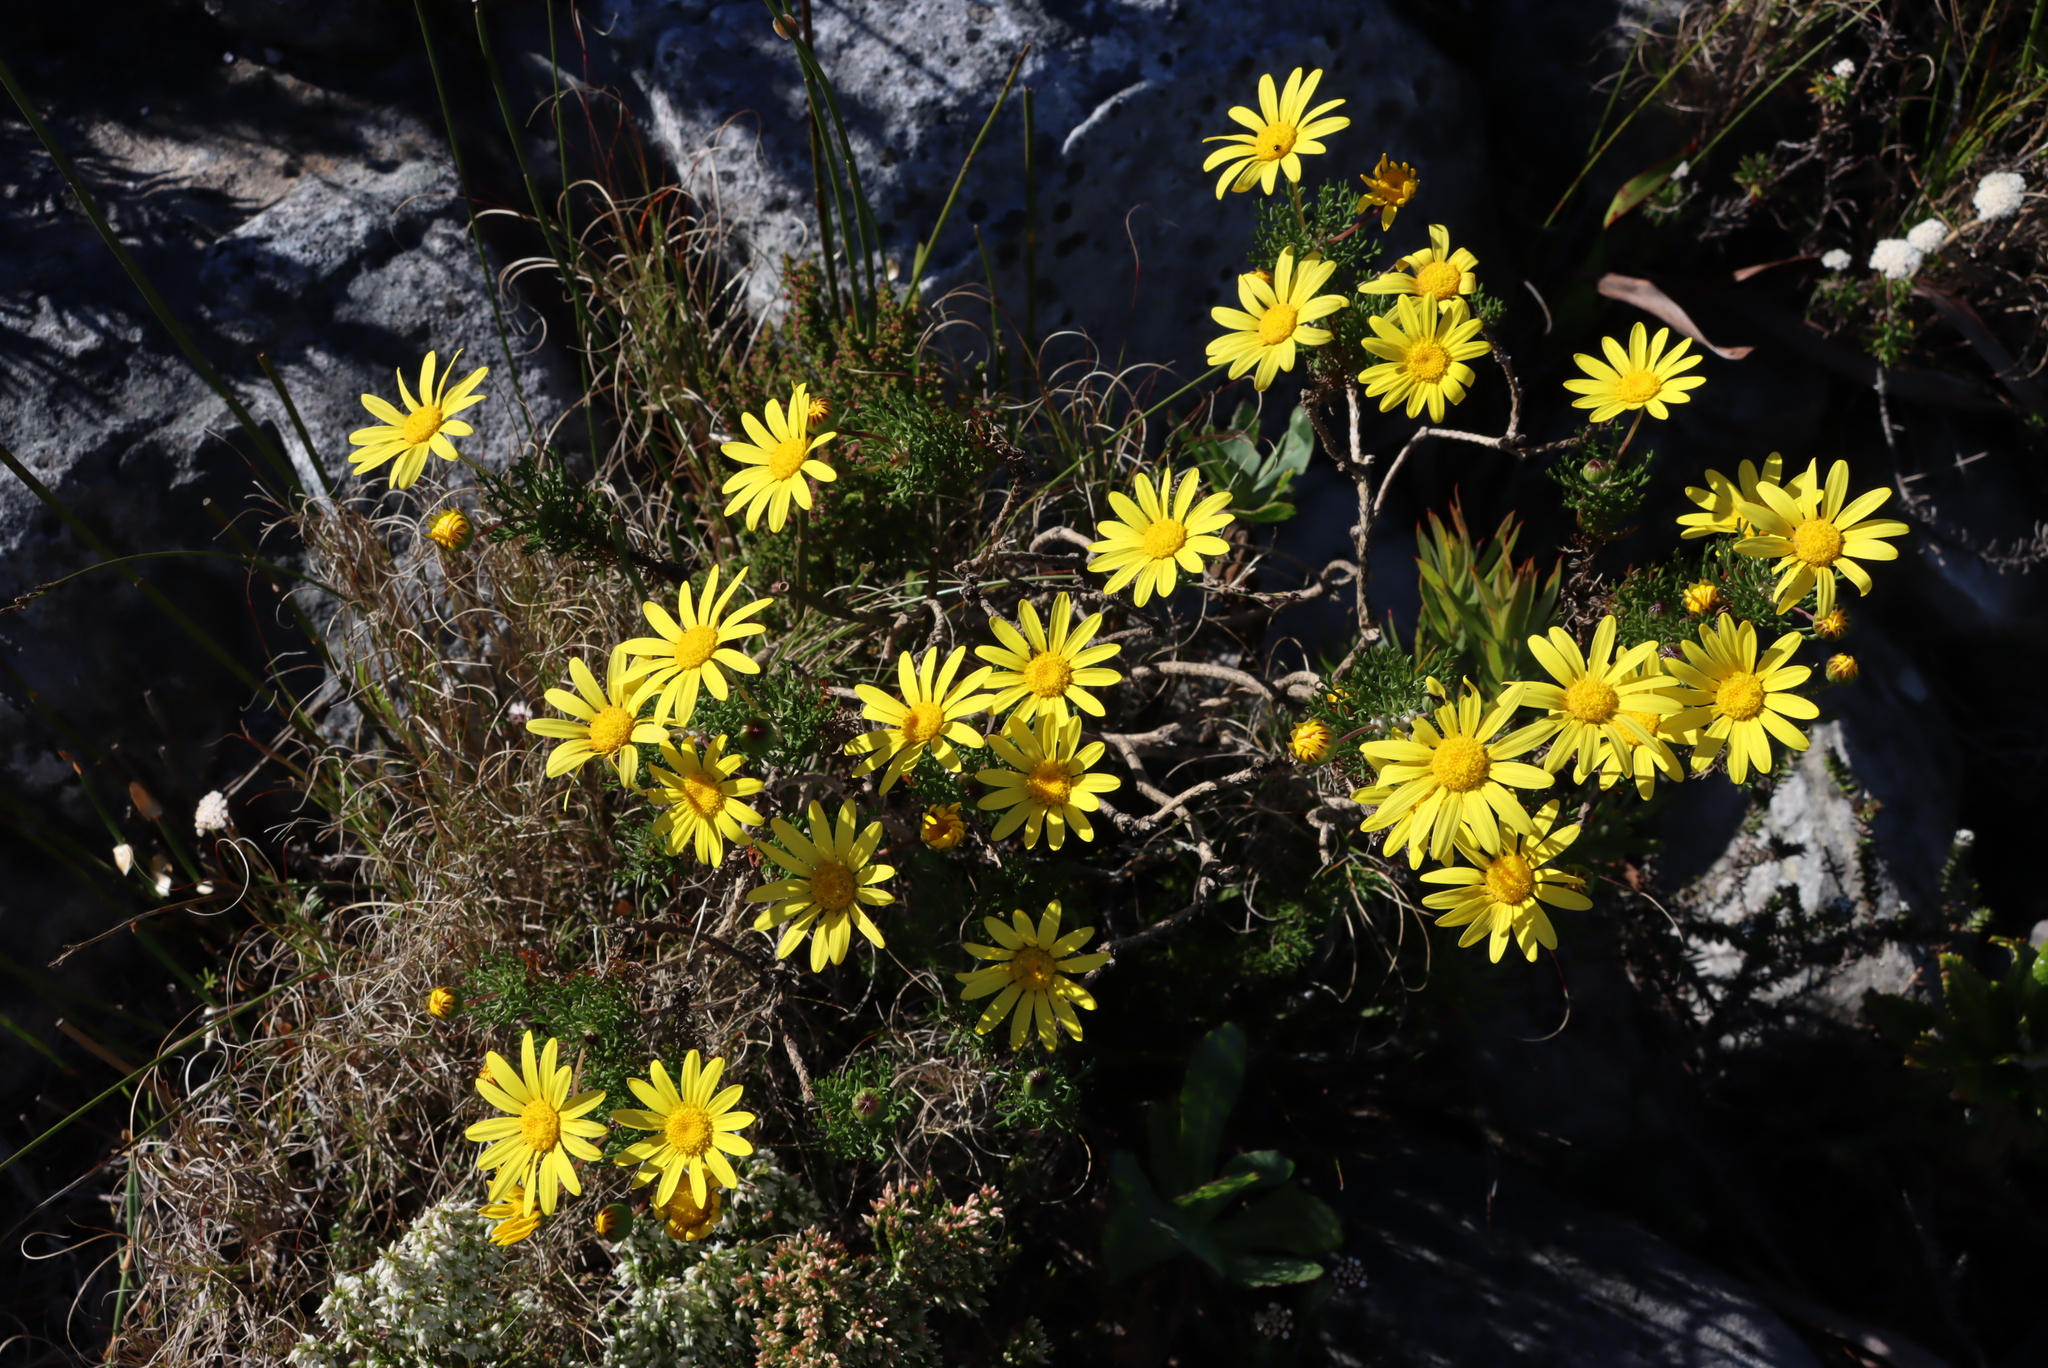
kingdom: Plantae
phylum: Tracheophyta
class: Magnoliopsida
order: Asterales
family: Asteraceae
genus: Euryops
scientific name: Euryops abrotanifolius
